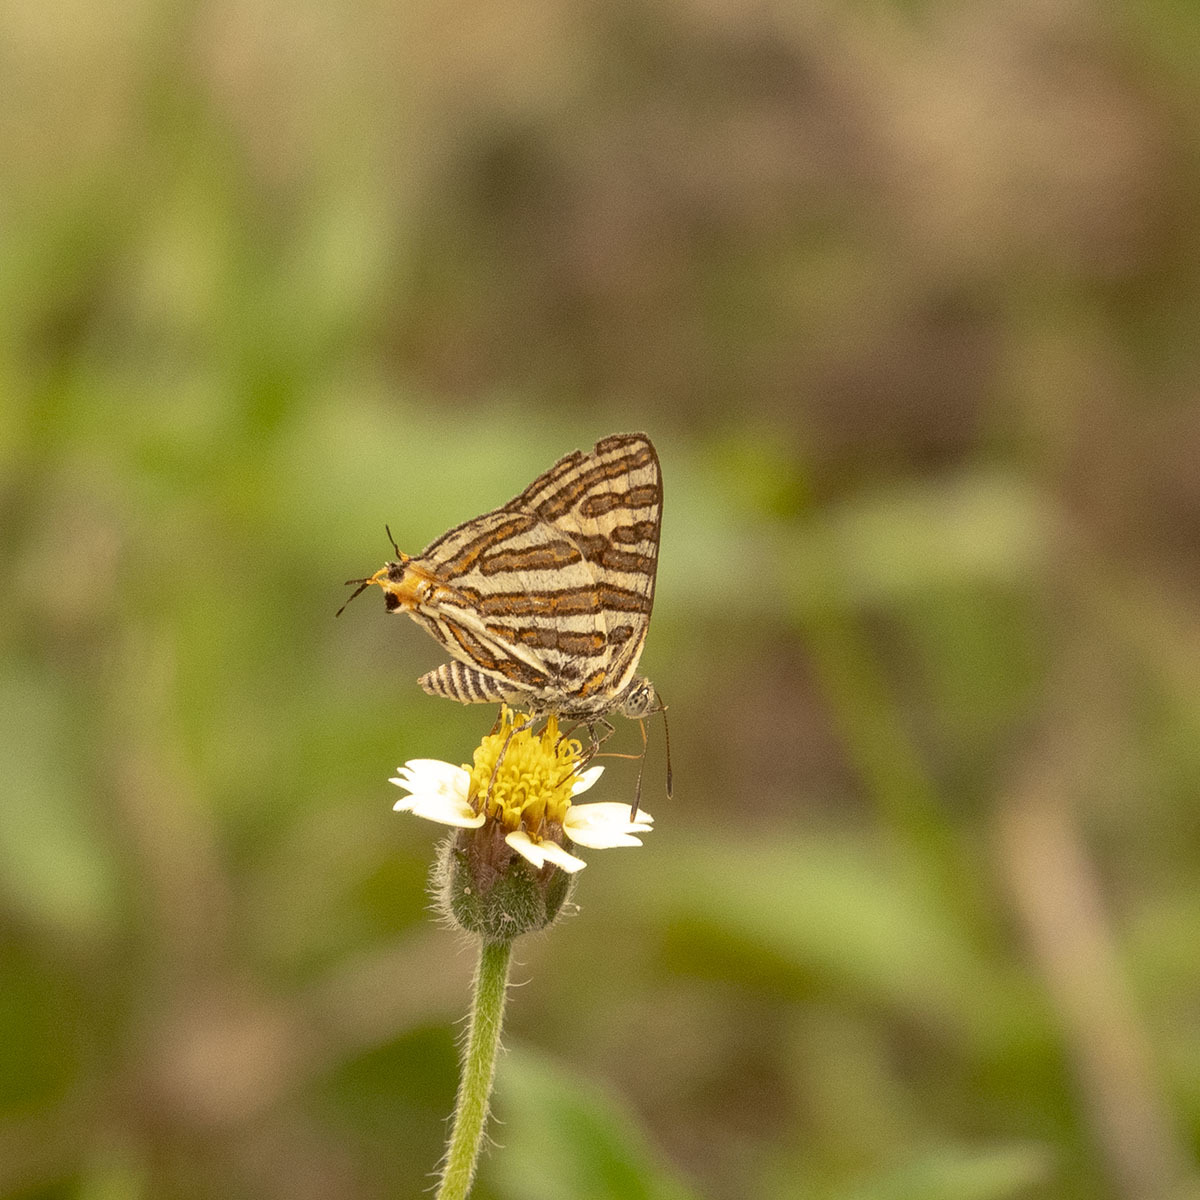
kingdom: Animalia
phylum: Arthropoda
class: Insecta
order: Lepidoptera
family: Lycaenidae
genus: Cigaritis
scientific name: Cigaritis vulcanus
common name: Common silverline
